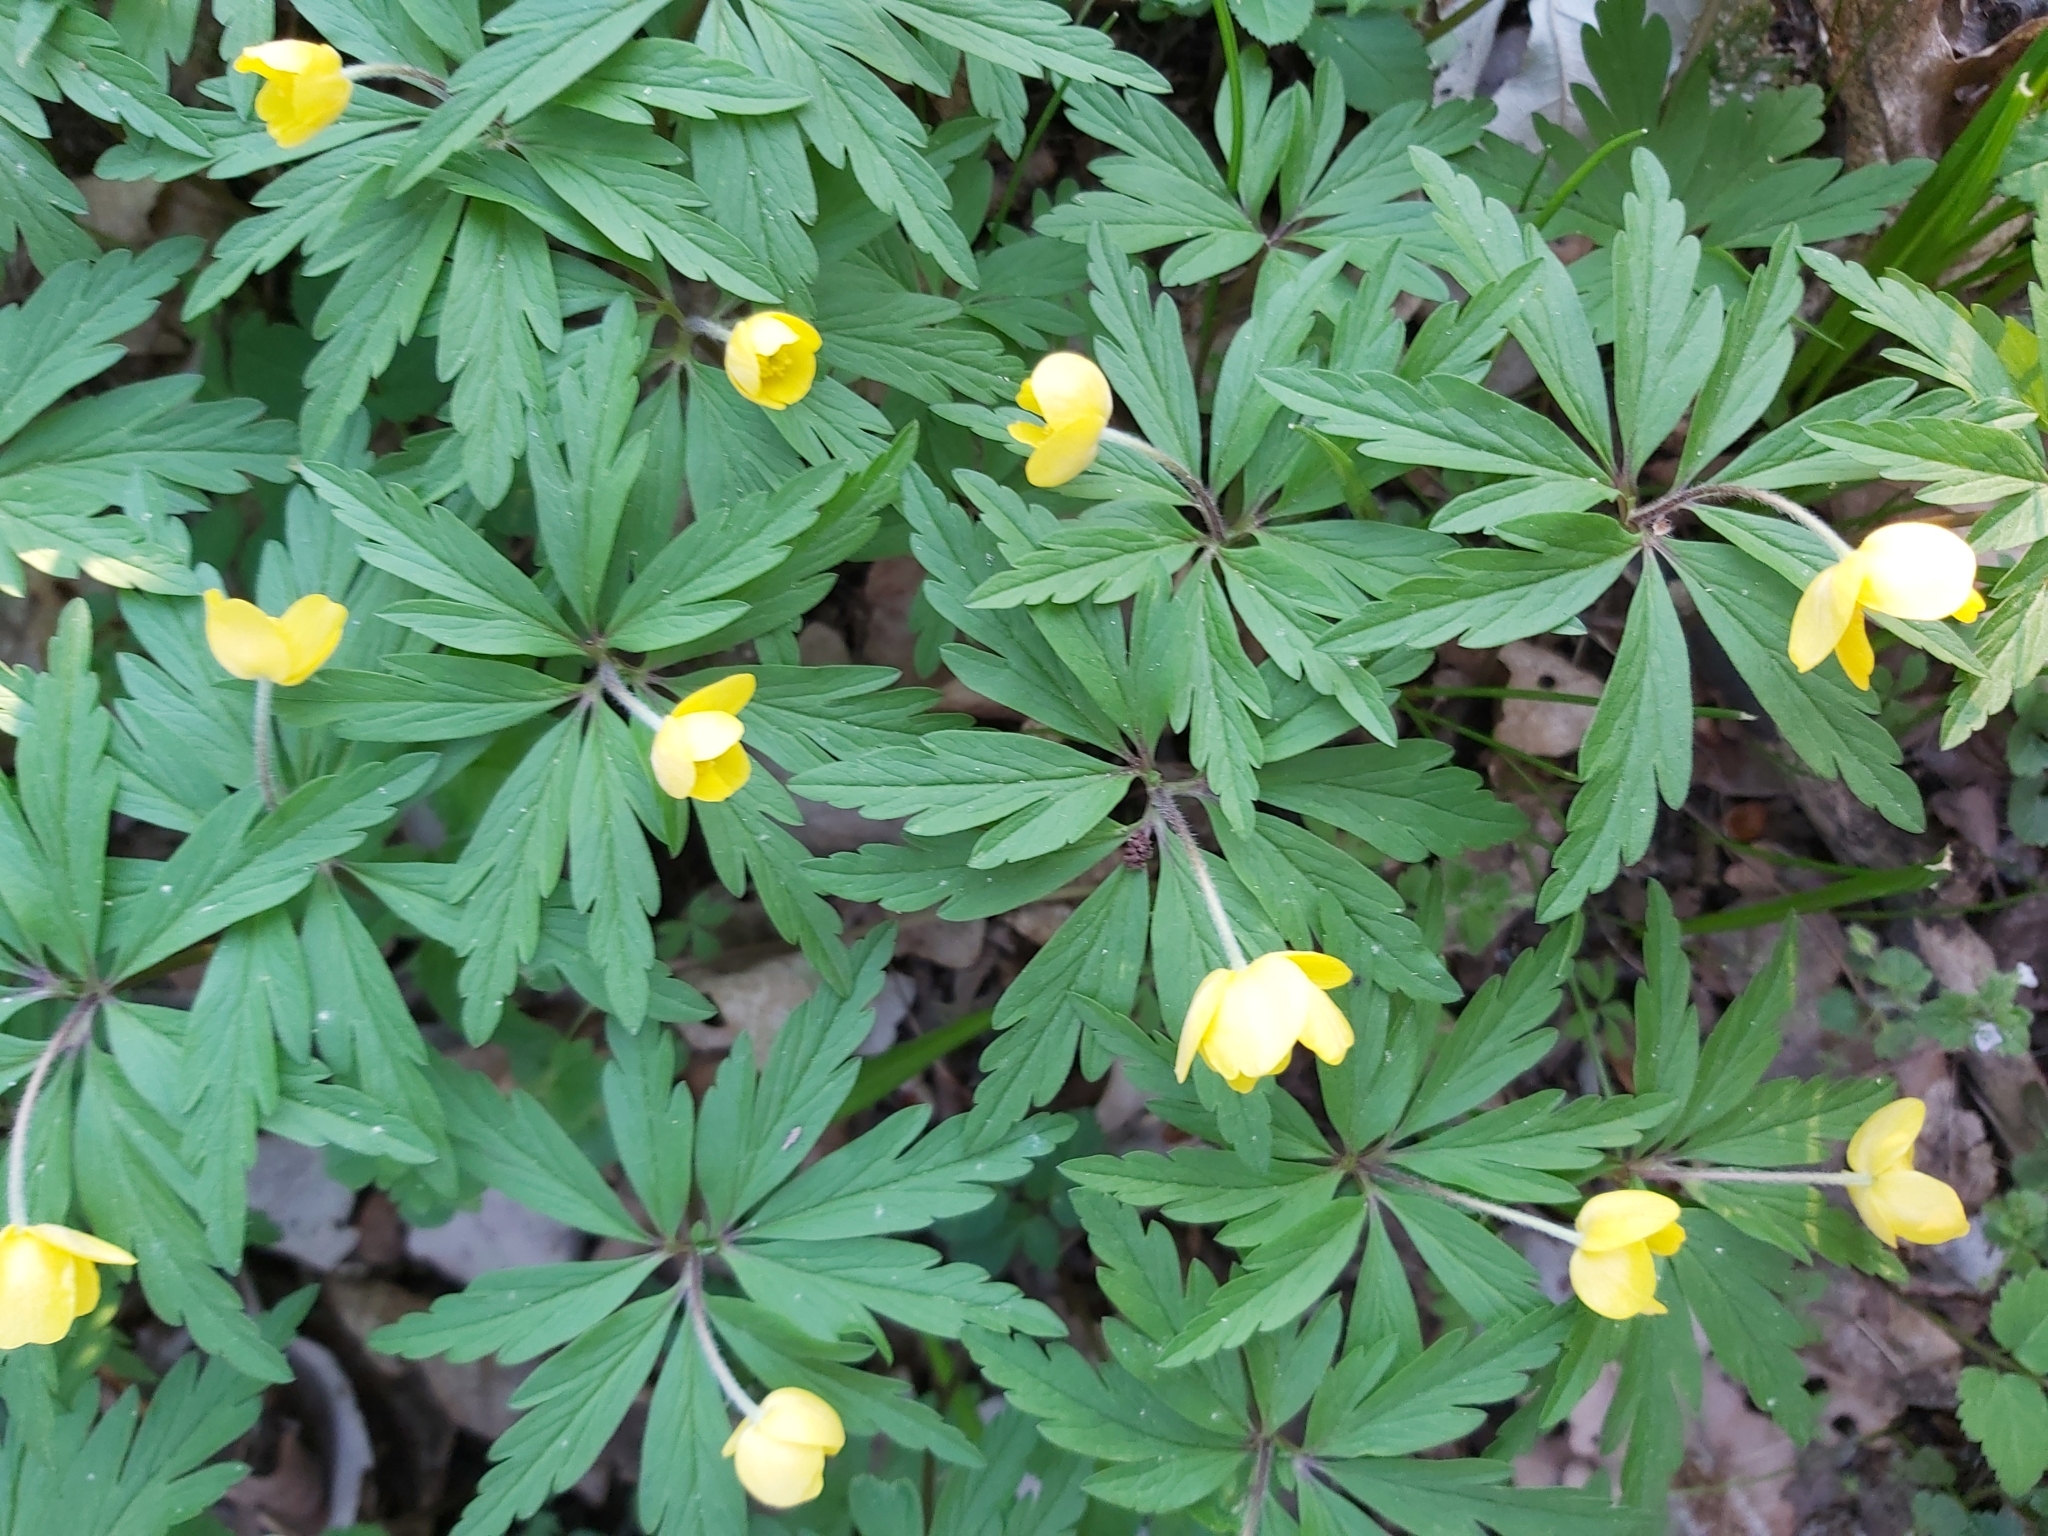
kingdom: Plantae
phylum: Tracheophyta
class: Magnoliopsida
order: Ranunculales
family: Ranunculaceae
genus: Anemone
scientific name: Anemone ranunculoides
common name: Yellow anemone
